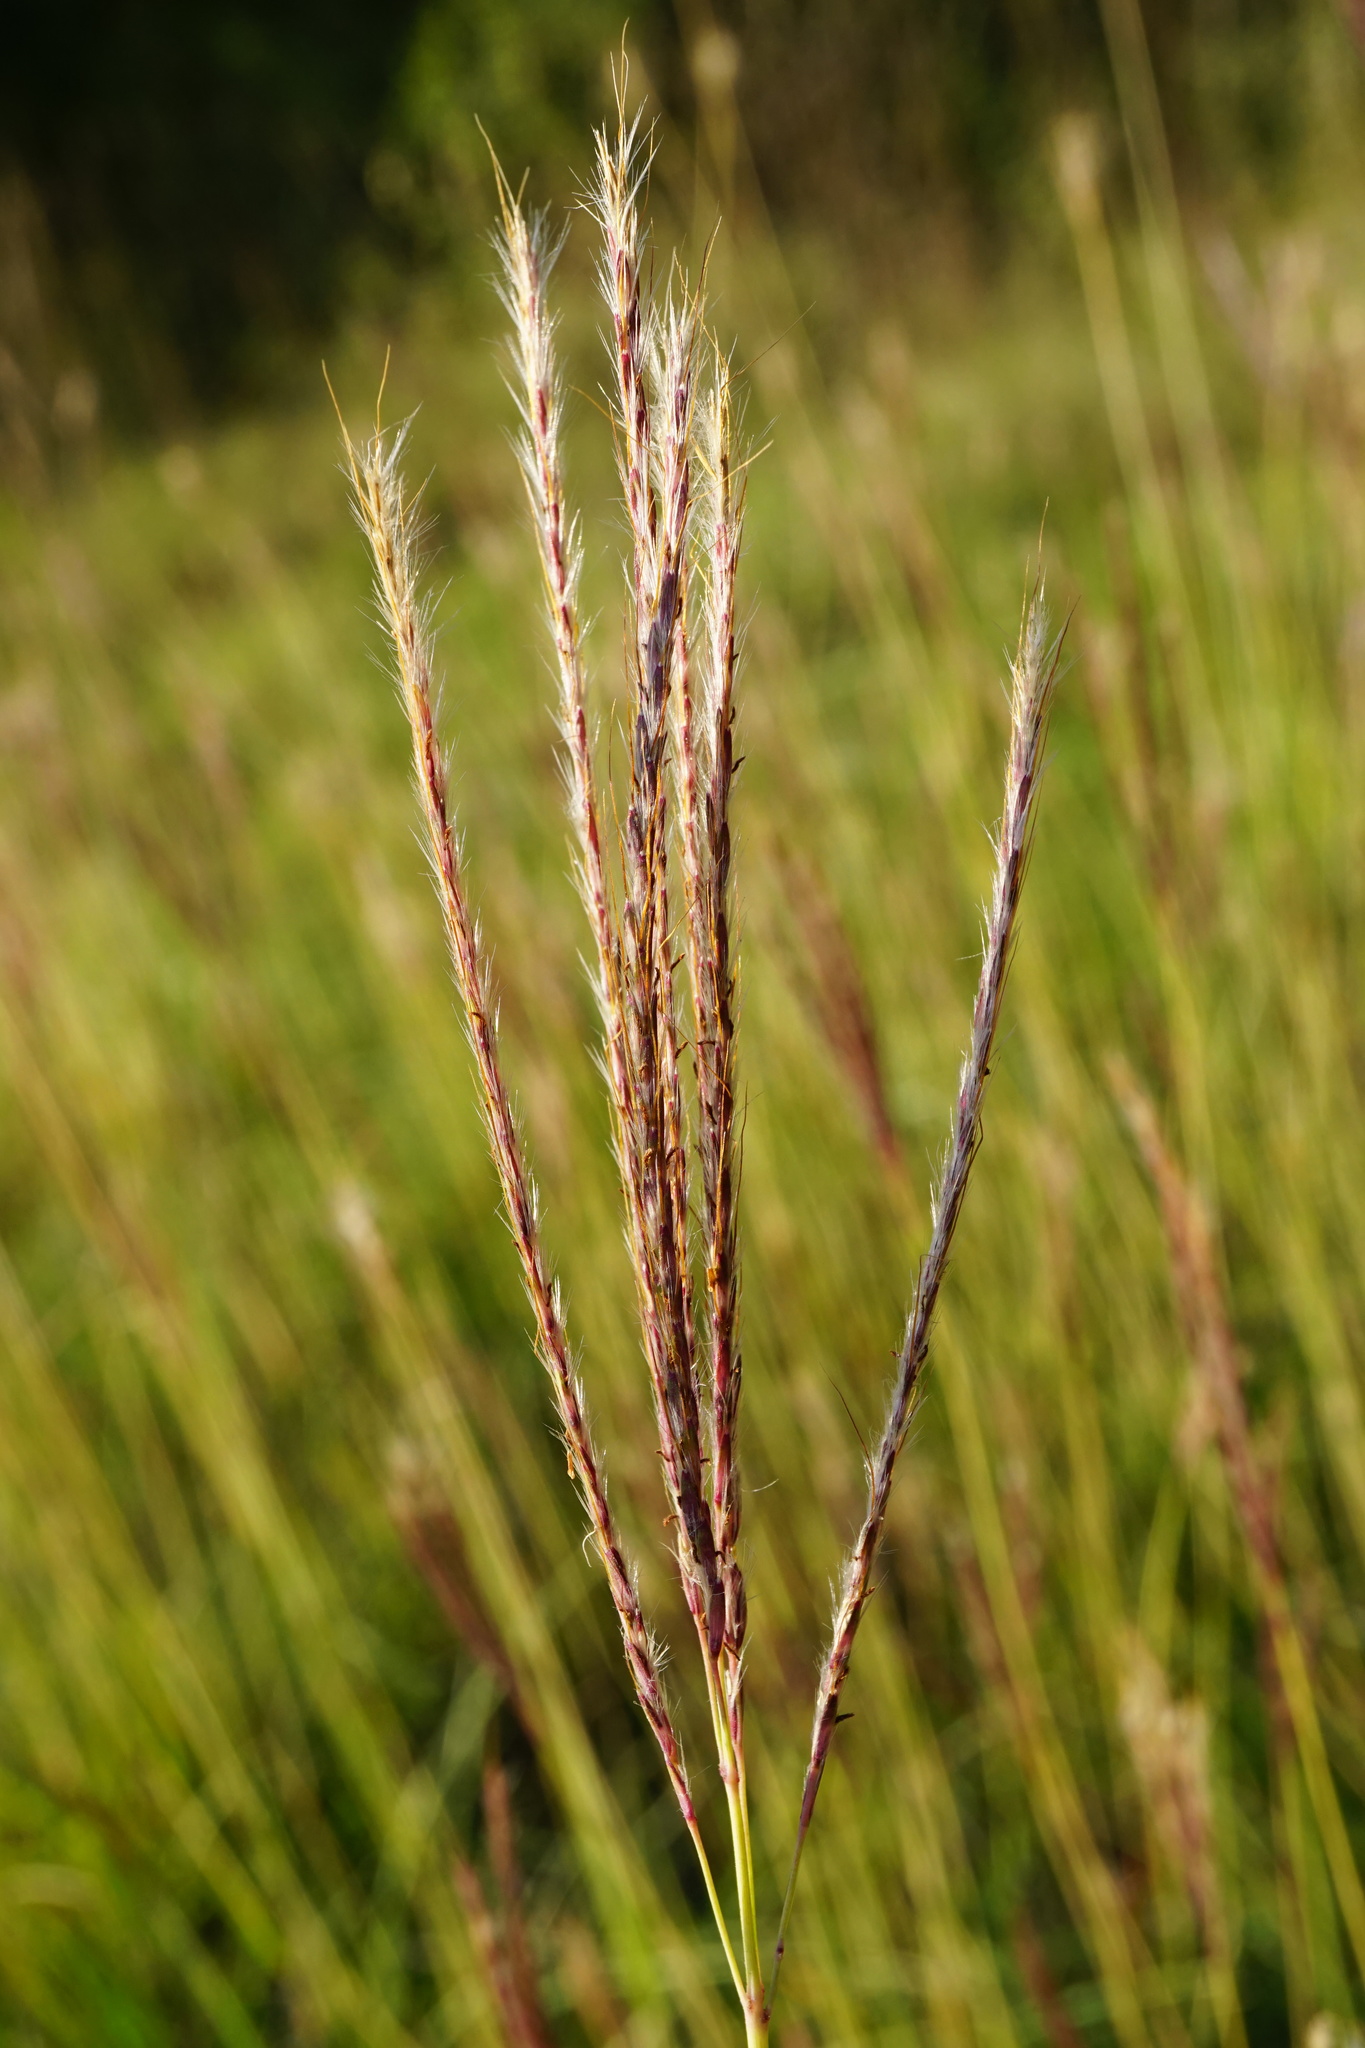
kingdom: Plantae
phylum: Tracheophyta
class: Liliopsida
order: Poales
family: Poaceae
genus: Bothriochloa
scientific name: Bothriochloa ischaemum
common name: Yellow bluestem
